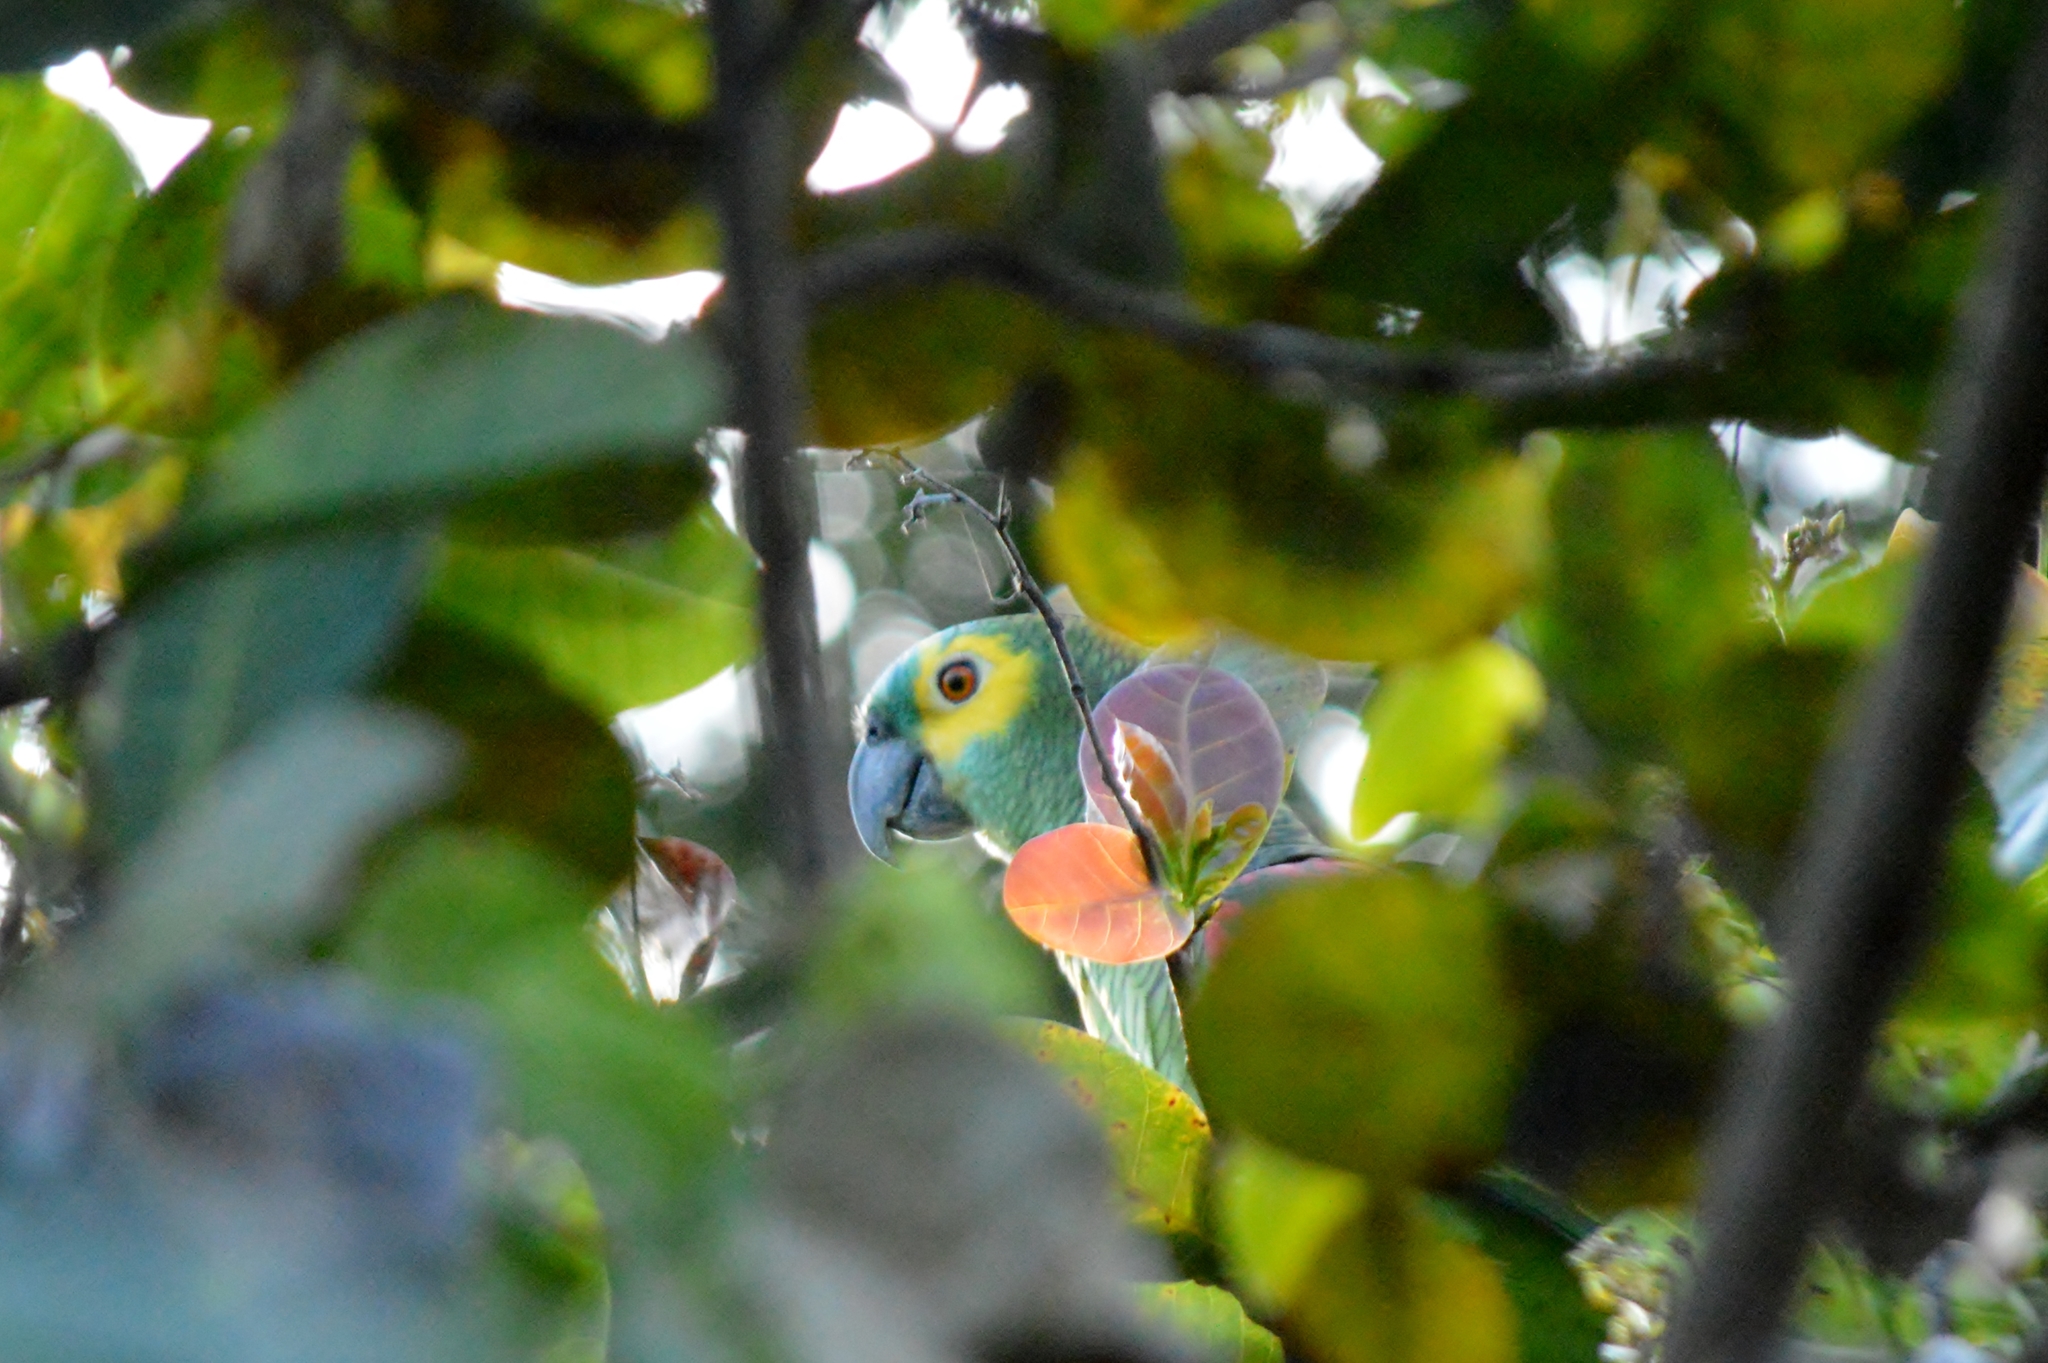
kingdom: Animalia
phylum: Chordata
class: Aves
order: Psittaciformes
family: Psittacidae
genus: Amazona
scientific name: Amazona aestiva
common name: Turquoise-fronted amazon
